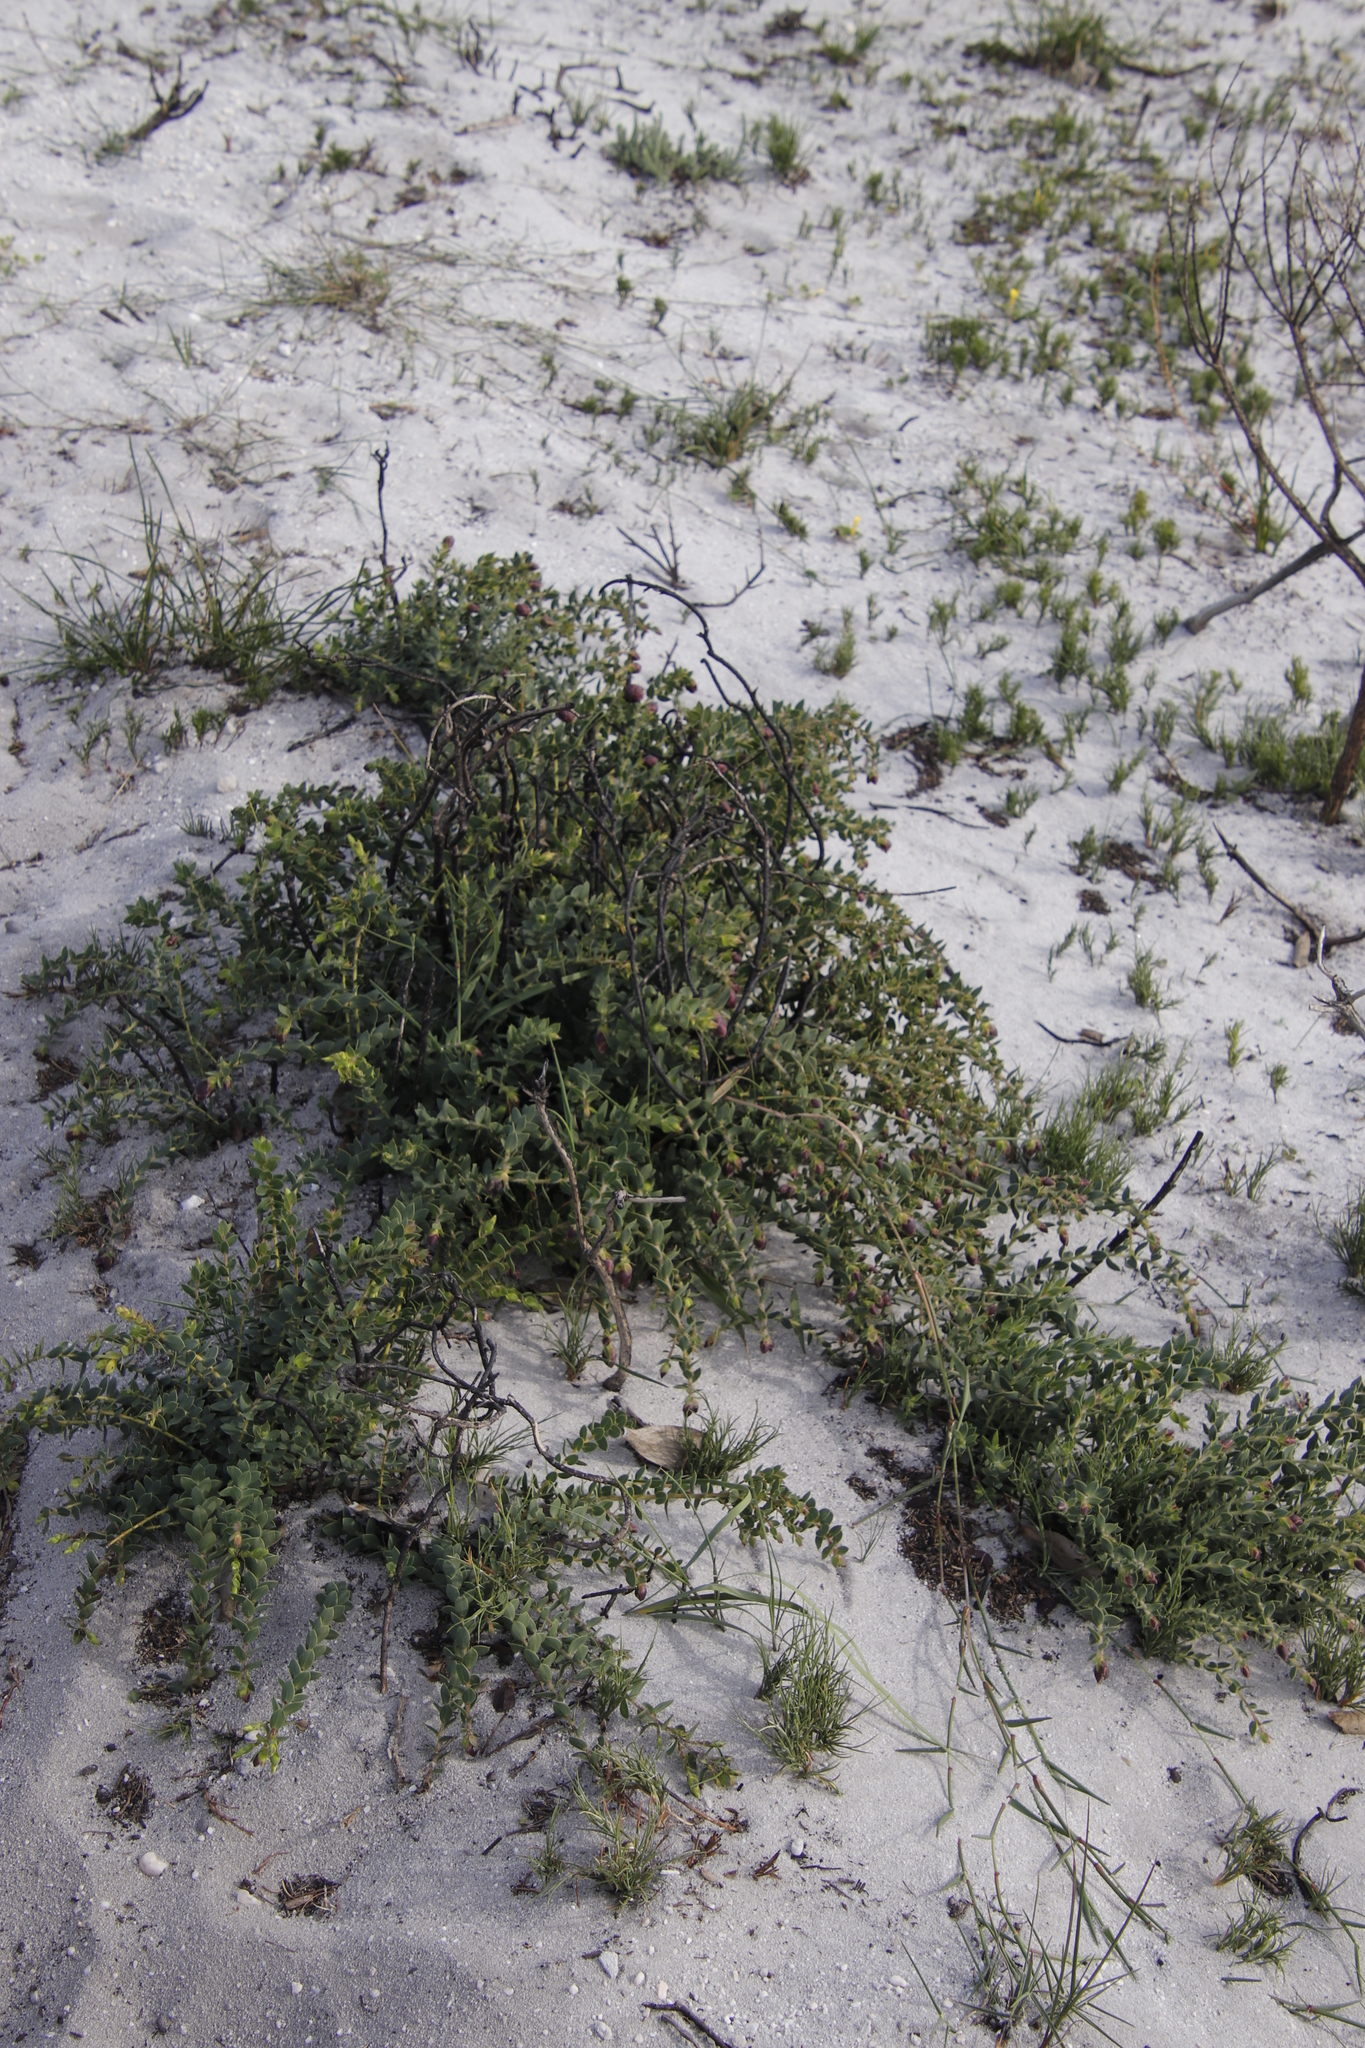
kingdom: Plantae
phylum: Tracheophyta
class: Magnoliopsida
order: Fabales
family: Fabaceae
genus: Liparia
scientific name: Liparia parva
